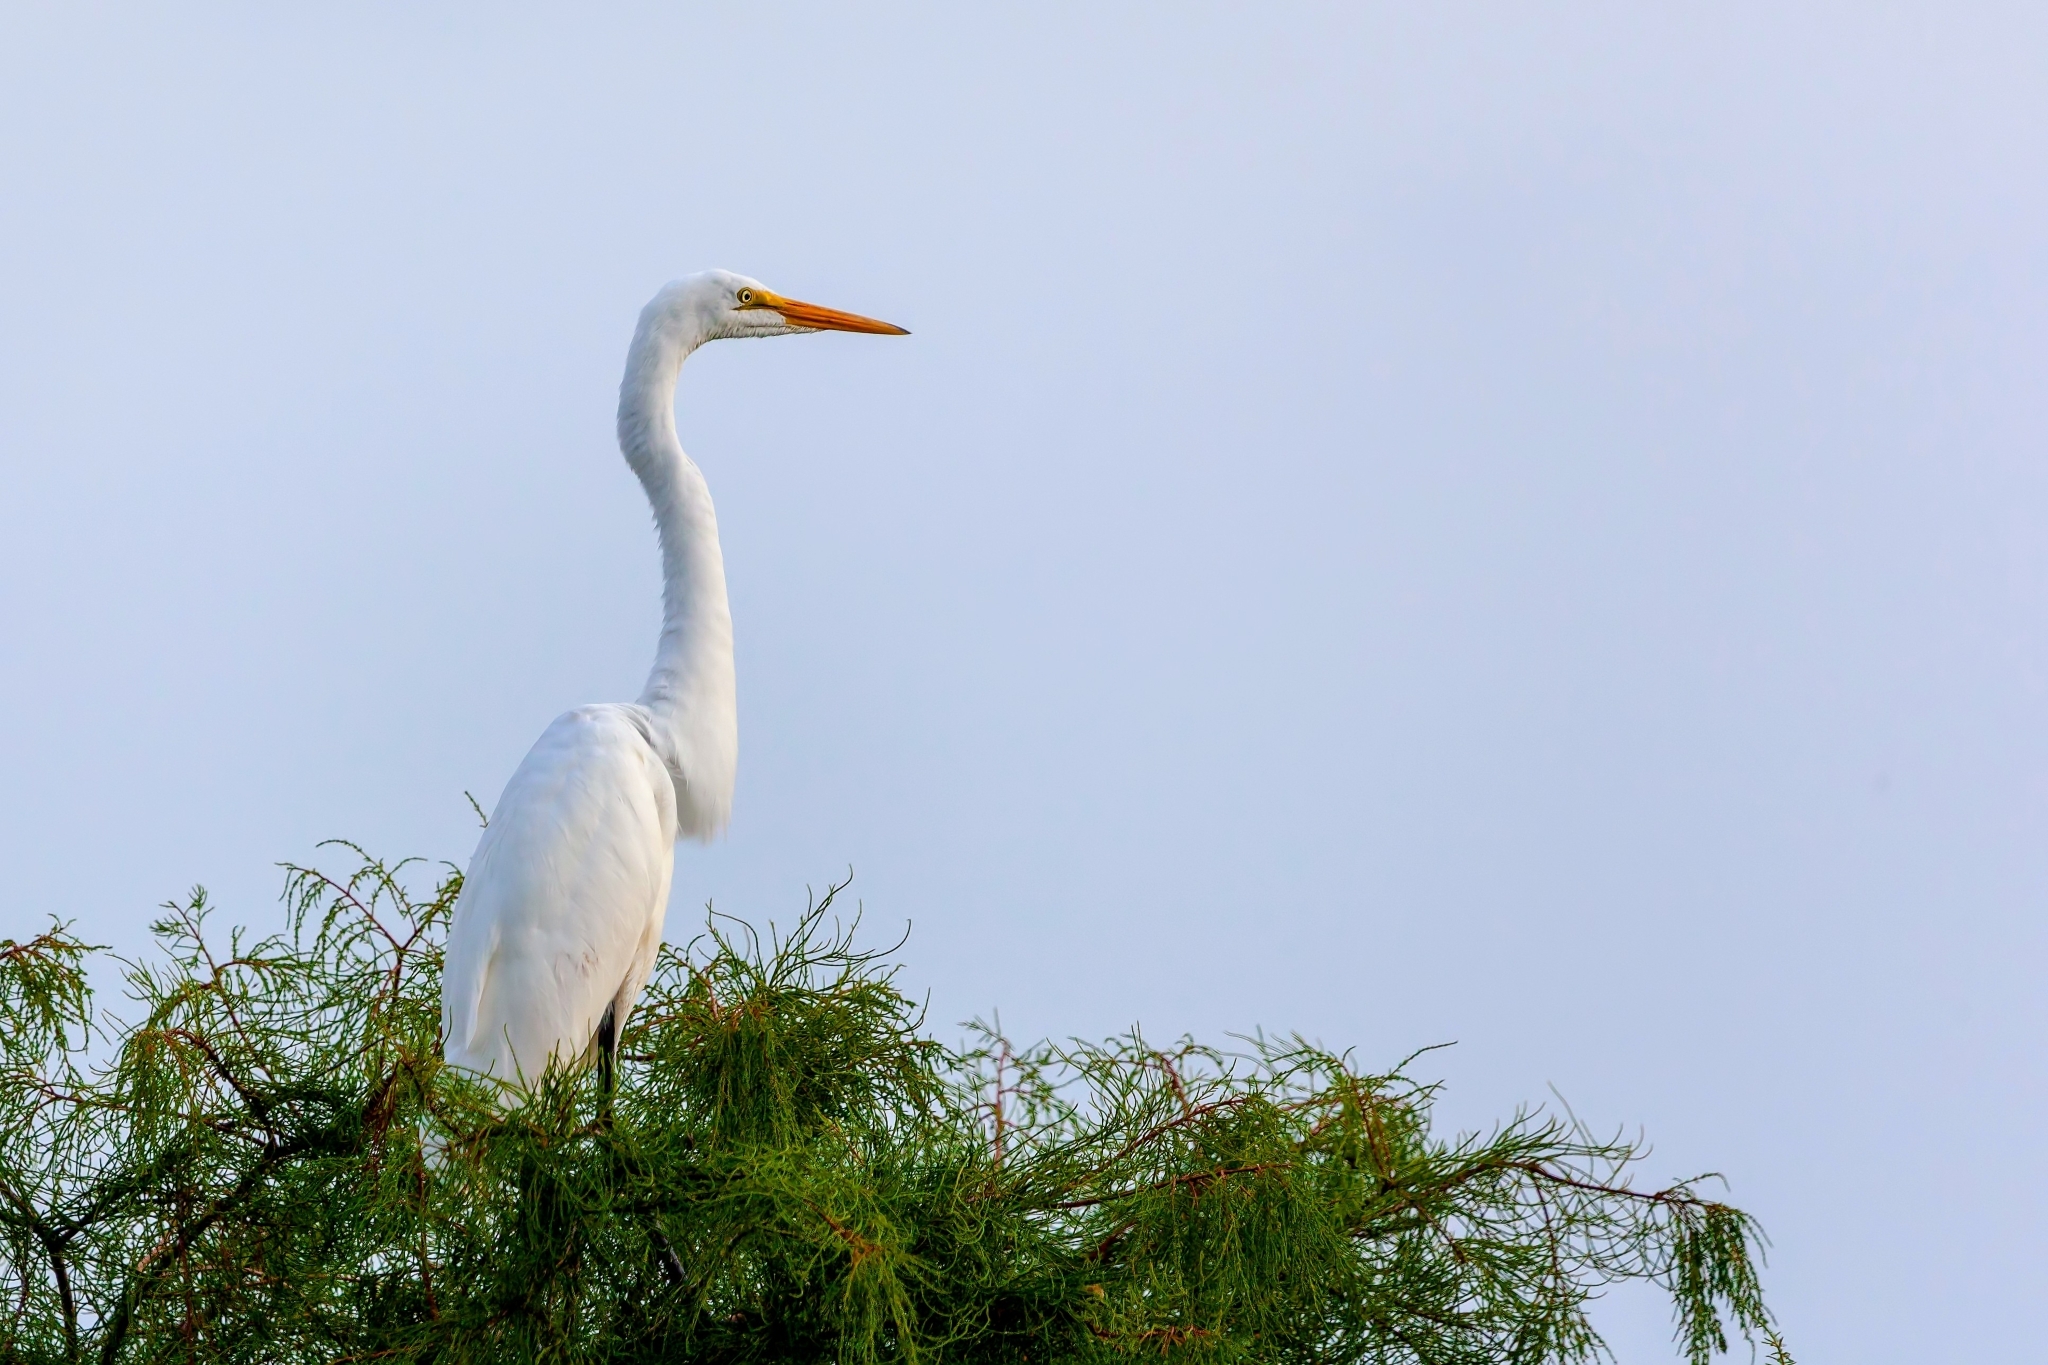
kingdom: Animalia
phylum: Chordata
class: Aves
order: Pelecaniformes
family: Ardeidae
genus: Ardea
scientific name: Ardea alba
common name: Great egret
